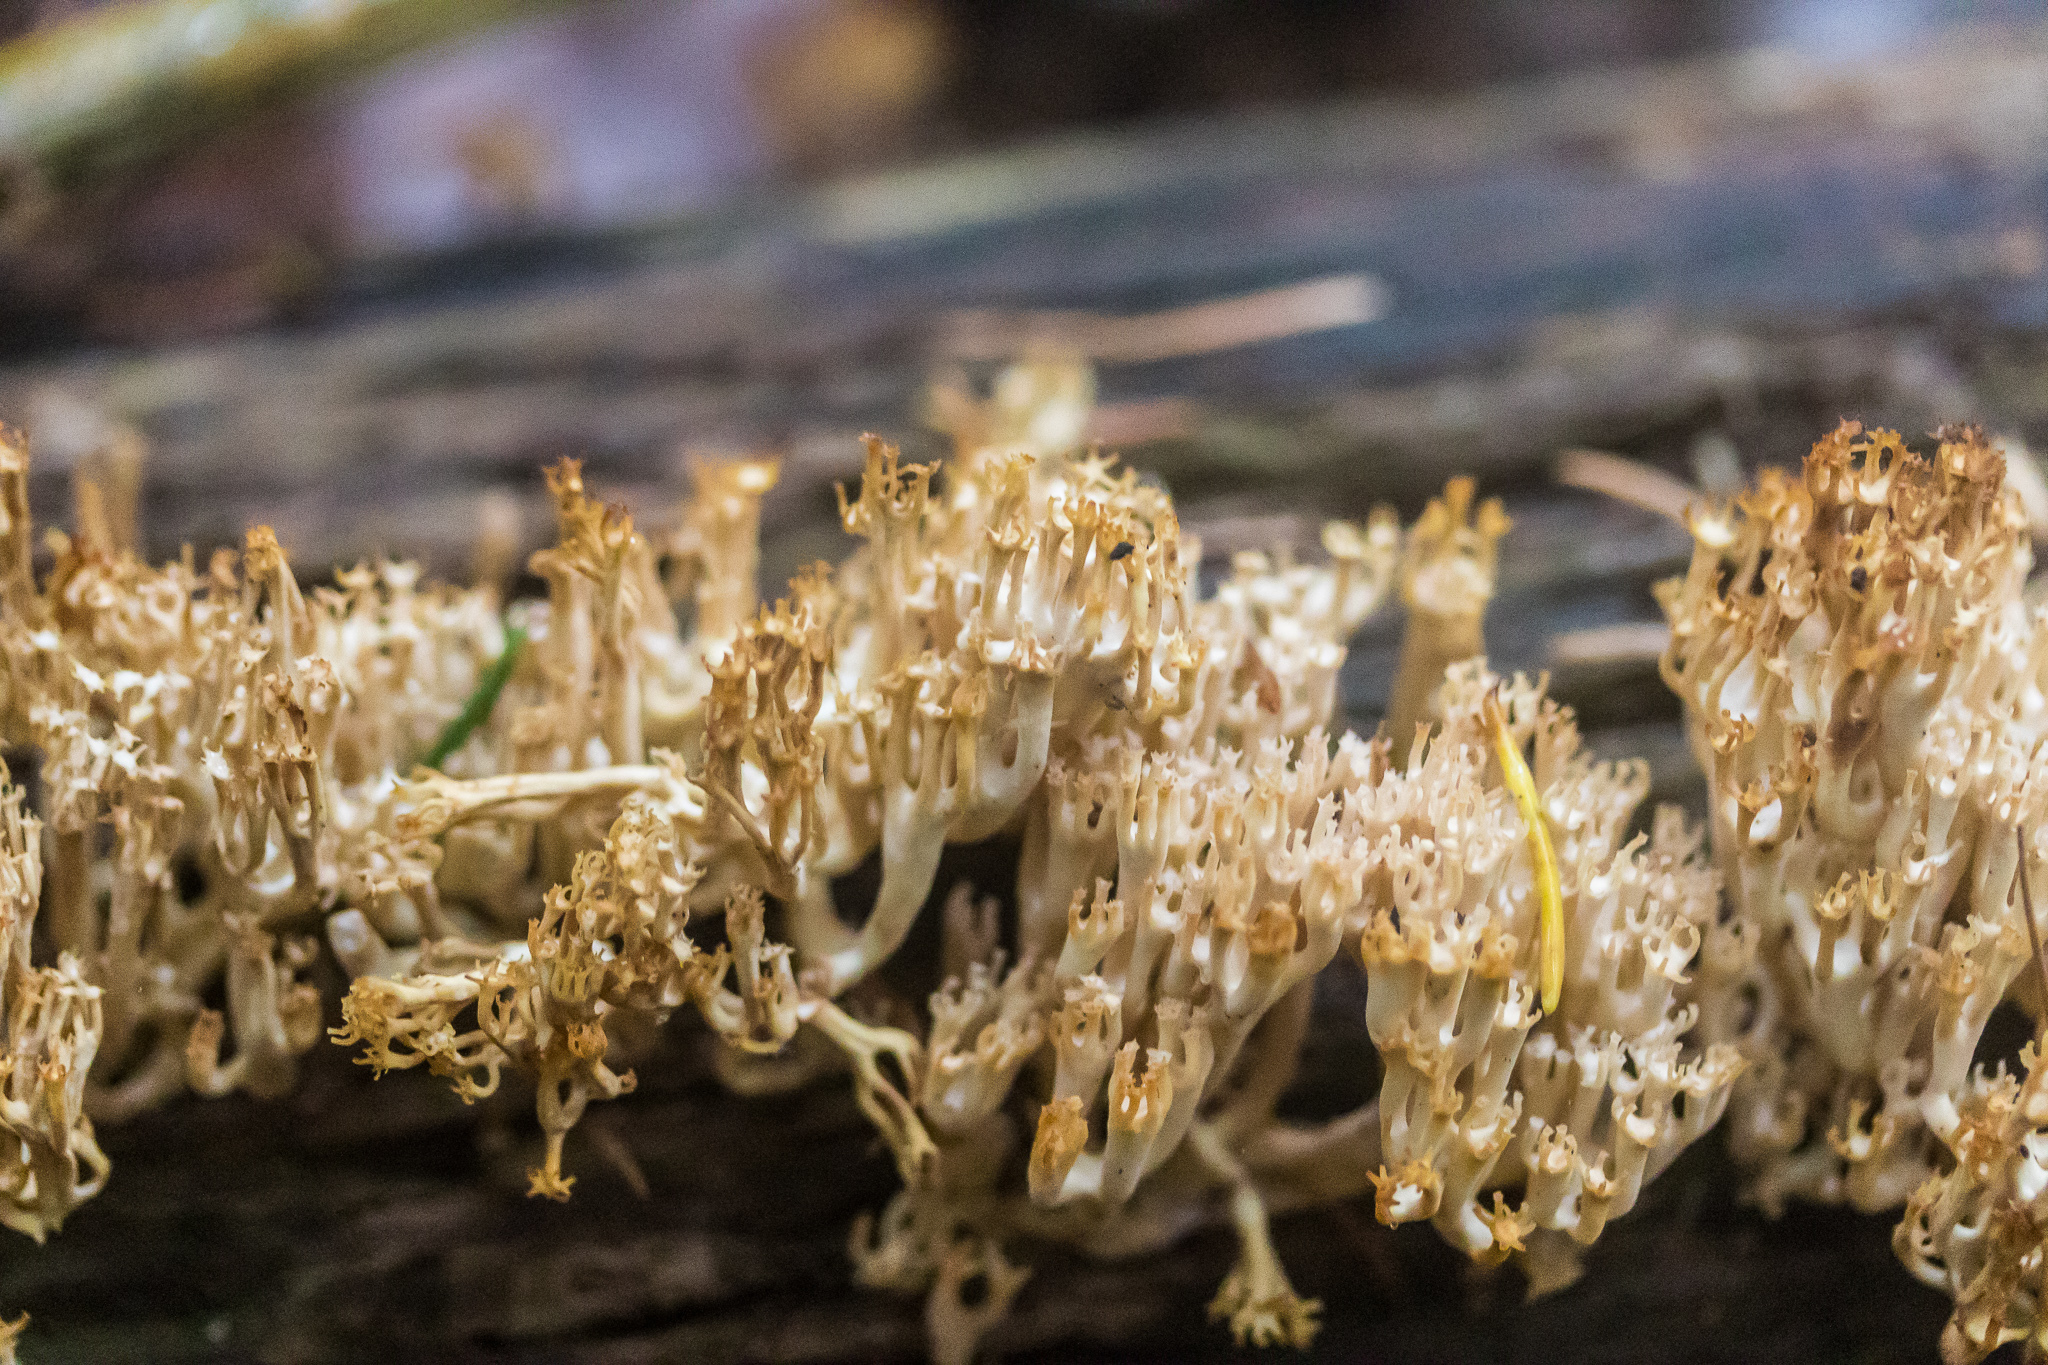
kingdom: Fungi
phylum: Basidiomycota
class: Agaricomycetes
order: Russulales
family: Auriscalpiaceae
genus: Artomyces
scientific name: Artomyces pyxidatus
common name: Crown-tipped coral fungus
